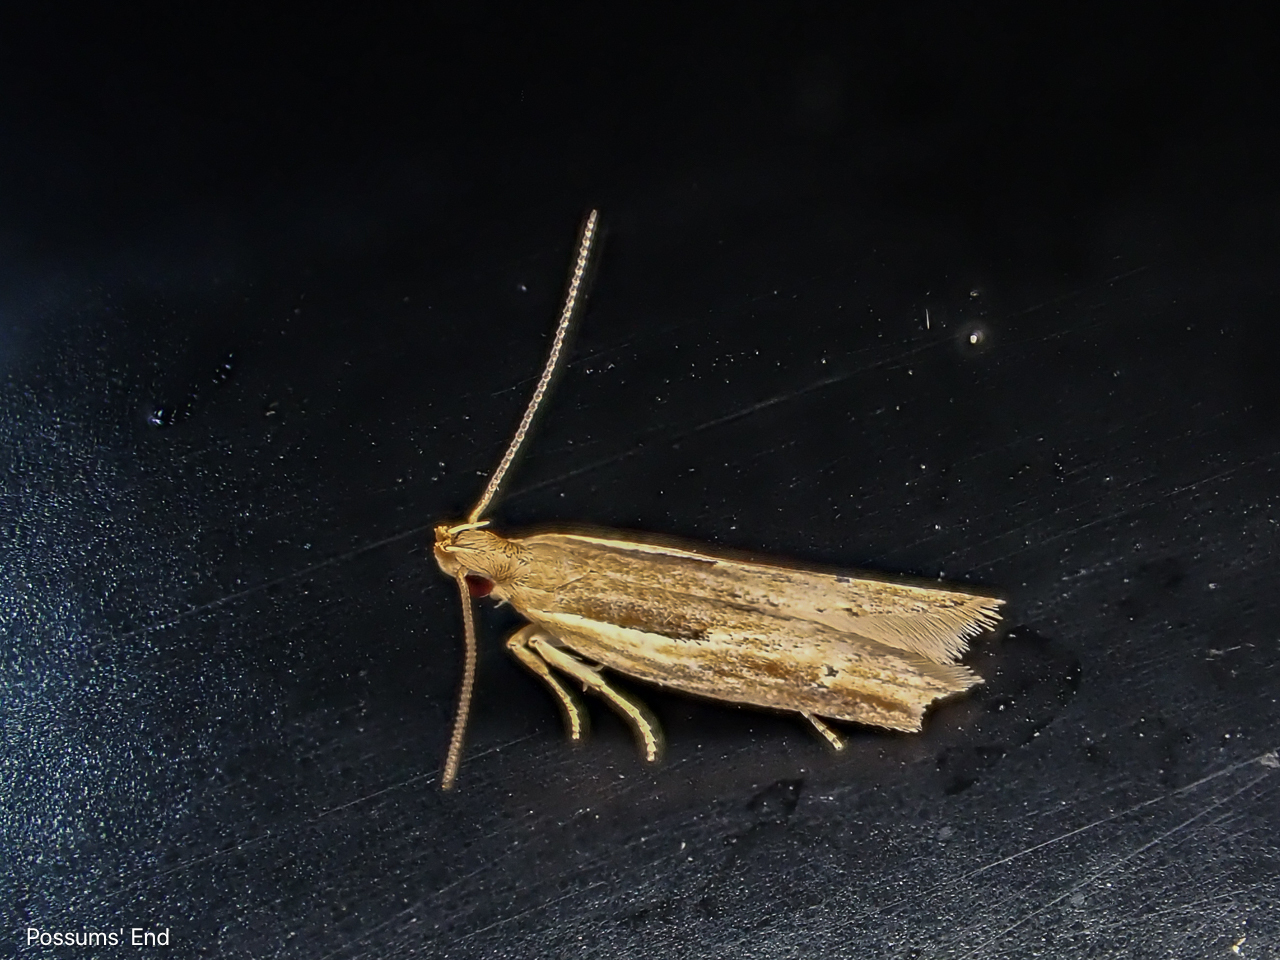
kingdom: Animalia
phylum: Arthropoda
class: Insecta
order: Lepidoptera
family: Depressariidae
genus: Eutorna
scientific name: Eutorna symmorpha
